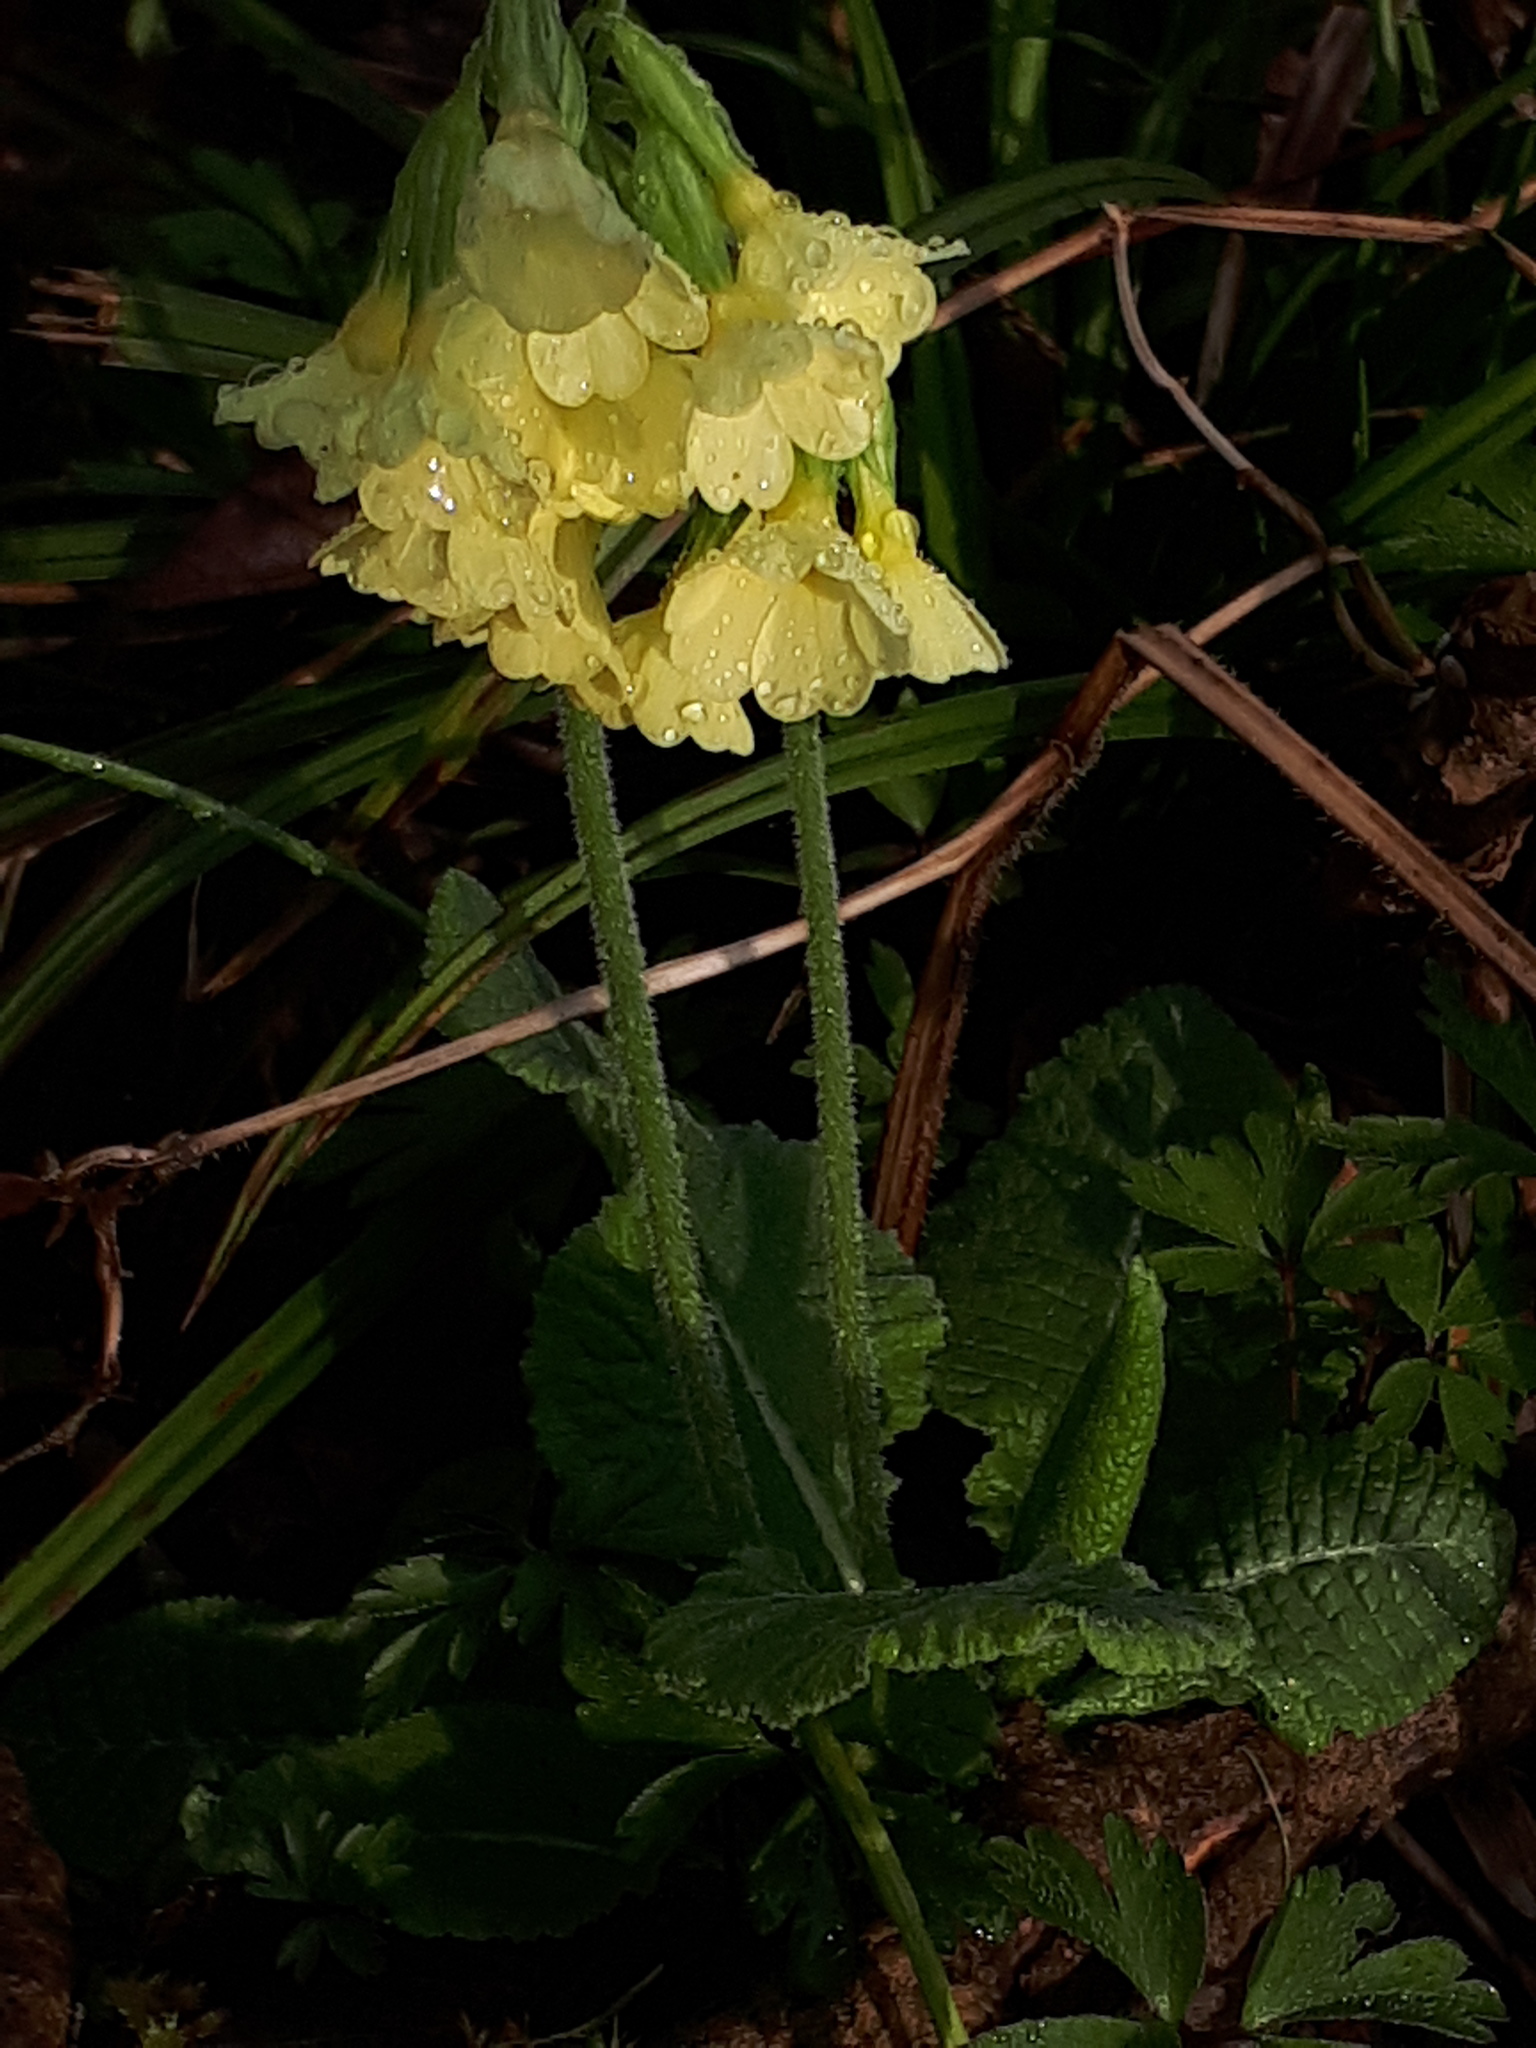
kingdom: Plantae
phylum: Tracheophyta
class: Magnoliopsida
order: Ericales
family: Primulaceae
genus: Primula
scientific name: Primula elatior
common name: Oxlip
